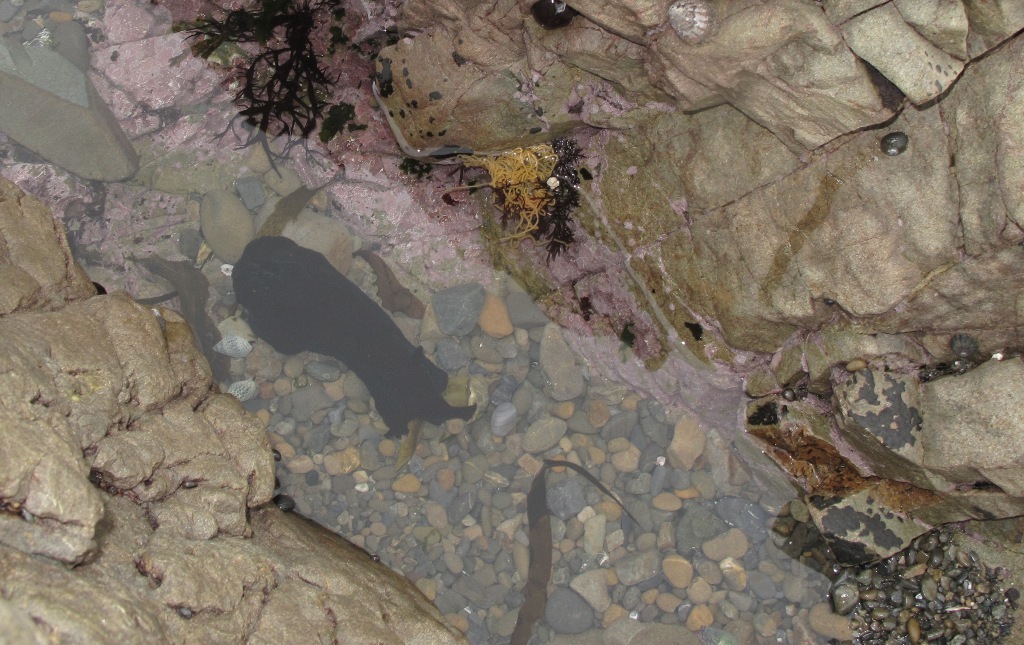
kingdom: Animalia
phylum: Mollusca
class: Gastropoda
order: Aplysiida
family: Aplysiidae
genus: Aplysia
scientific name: Aplysia juliana
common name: Walking sea hare
